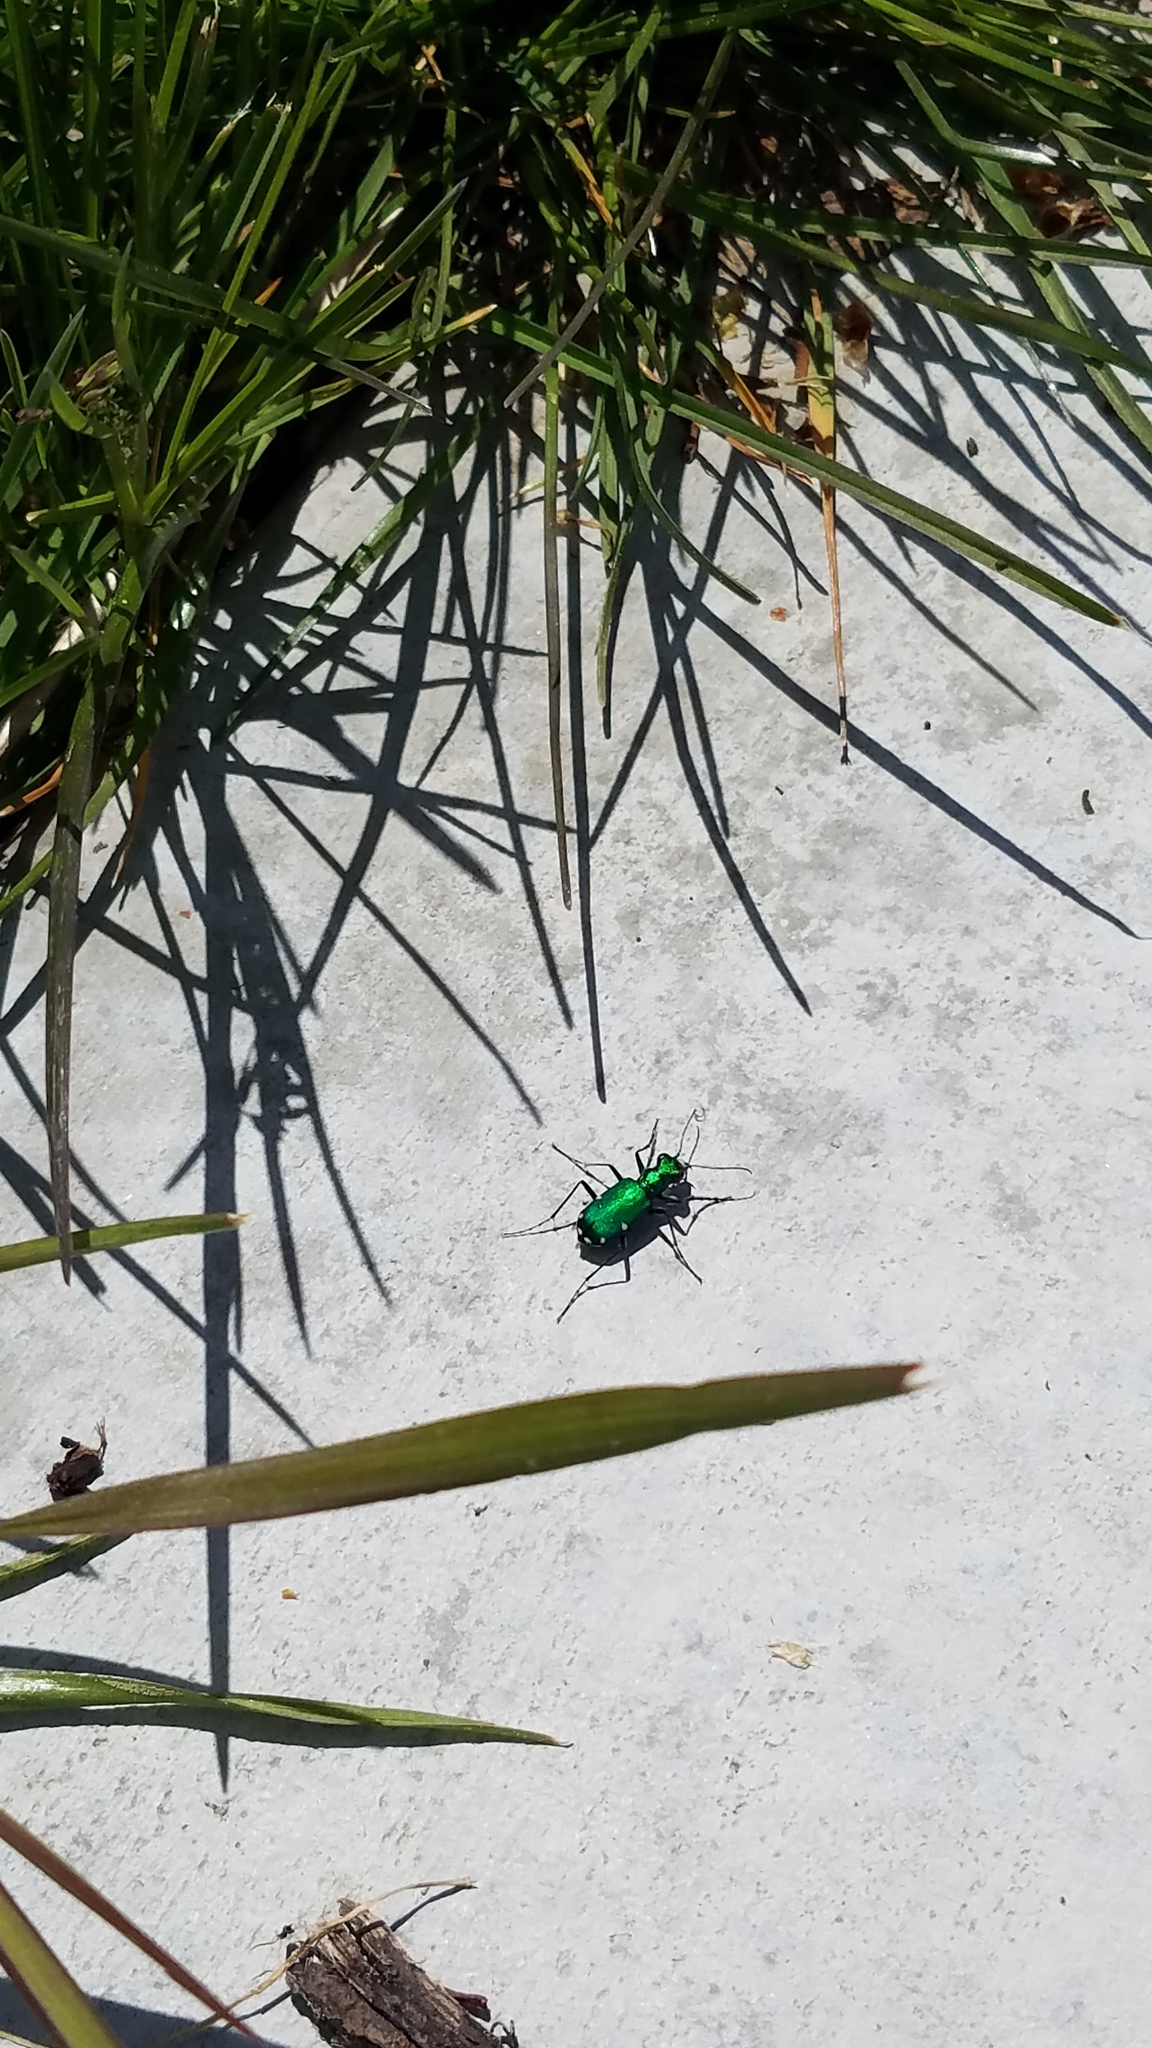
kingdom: Animalia
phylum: Arthropoda
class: Insecta
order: Coleoptera
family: Carabidae
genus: Cicindela
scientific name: Cicindela sexguttata
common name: Six-spotted tiger beetle
